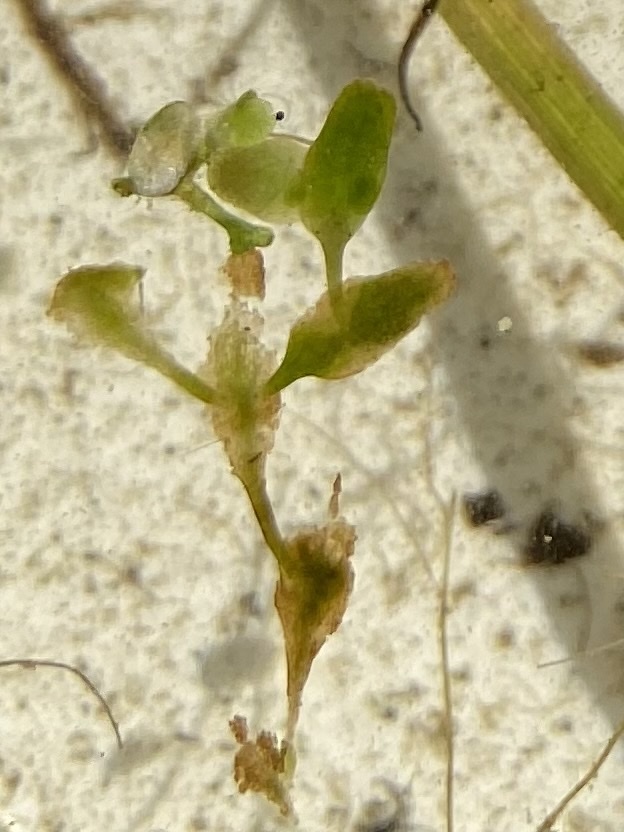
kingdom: Plantae
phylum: Tracheophyta
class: Liliopsida
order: Alismatales
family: Araceae
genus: Lemna
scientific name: Lemna trisulca
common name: Ivy-leaved duckweed
